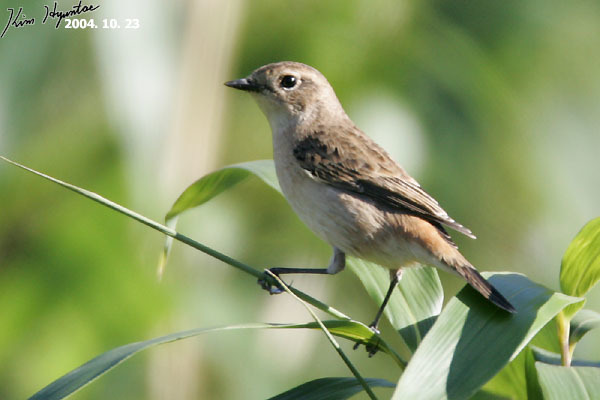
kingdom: Animalia
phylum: Chordata
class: Aves
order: Passeriformes
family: Muscicapidae
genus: Saxicola
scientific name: Saxicola stejnegeri
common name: Stejneger's stonechat
